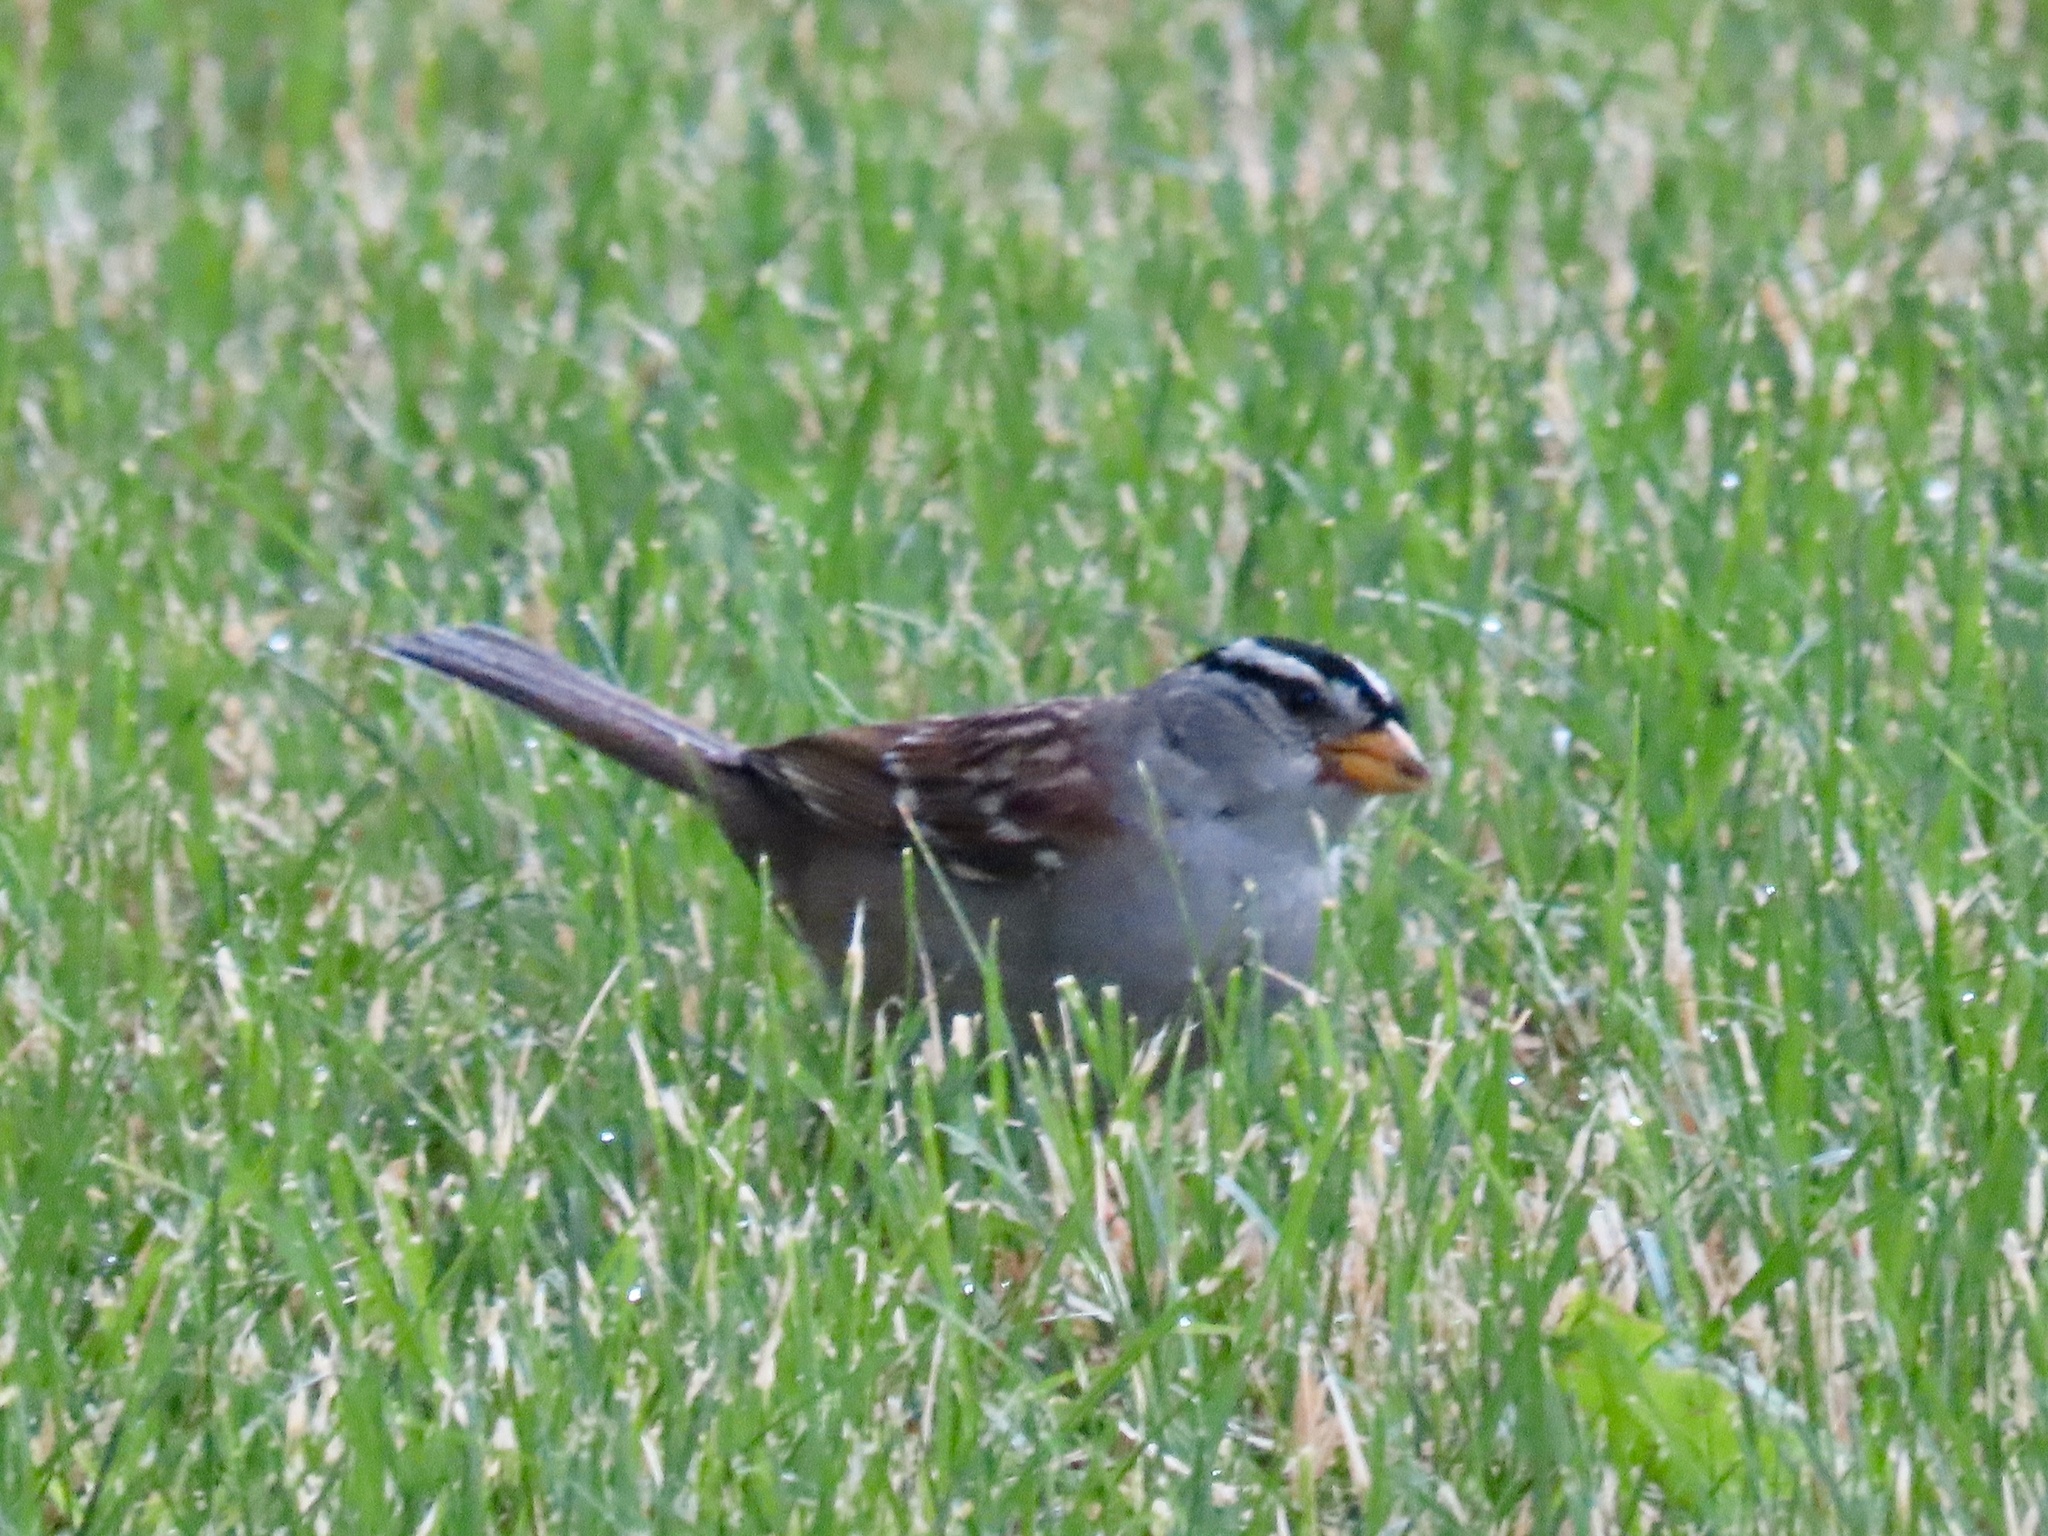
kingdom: Animalia
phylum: Chordata
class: Aves
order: Passeriformes
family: Passerellidae
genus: Zonotrichia
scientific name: Zonotrichia leucophrys
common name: White-crowned sparrow
